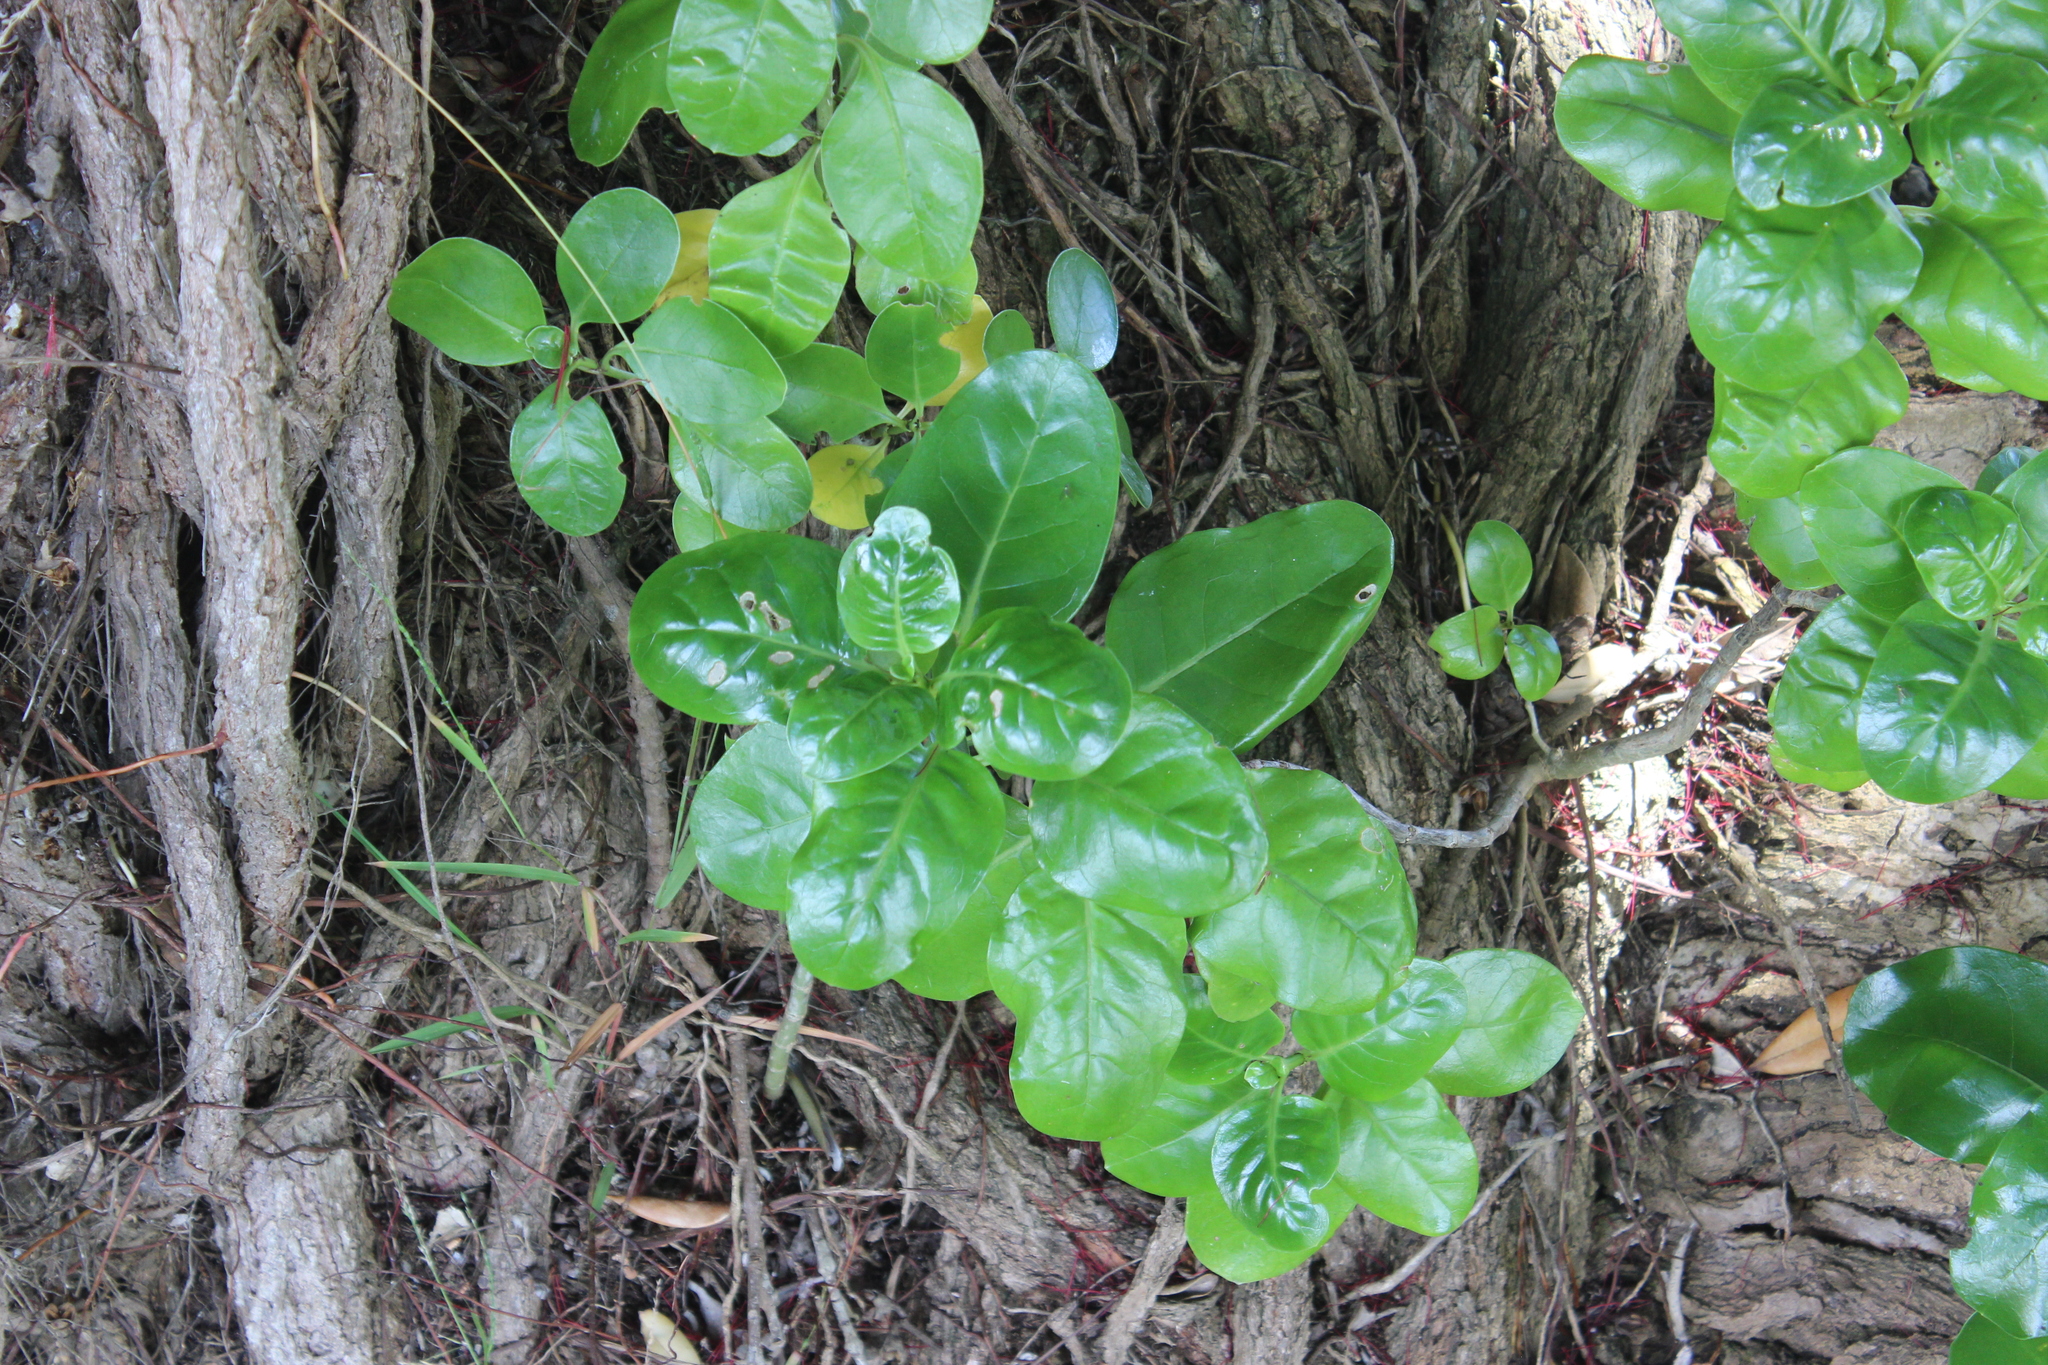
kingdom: Plantae
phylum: Tracheophyta
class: Magnoliopsida
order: Gentianales
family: Rubiaceae
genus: Coprosma
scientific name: Coprosma repens
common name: Tree bedstraw
